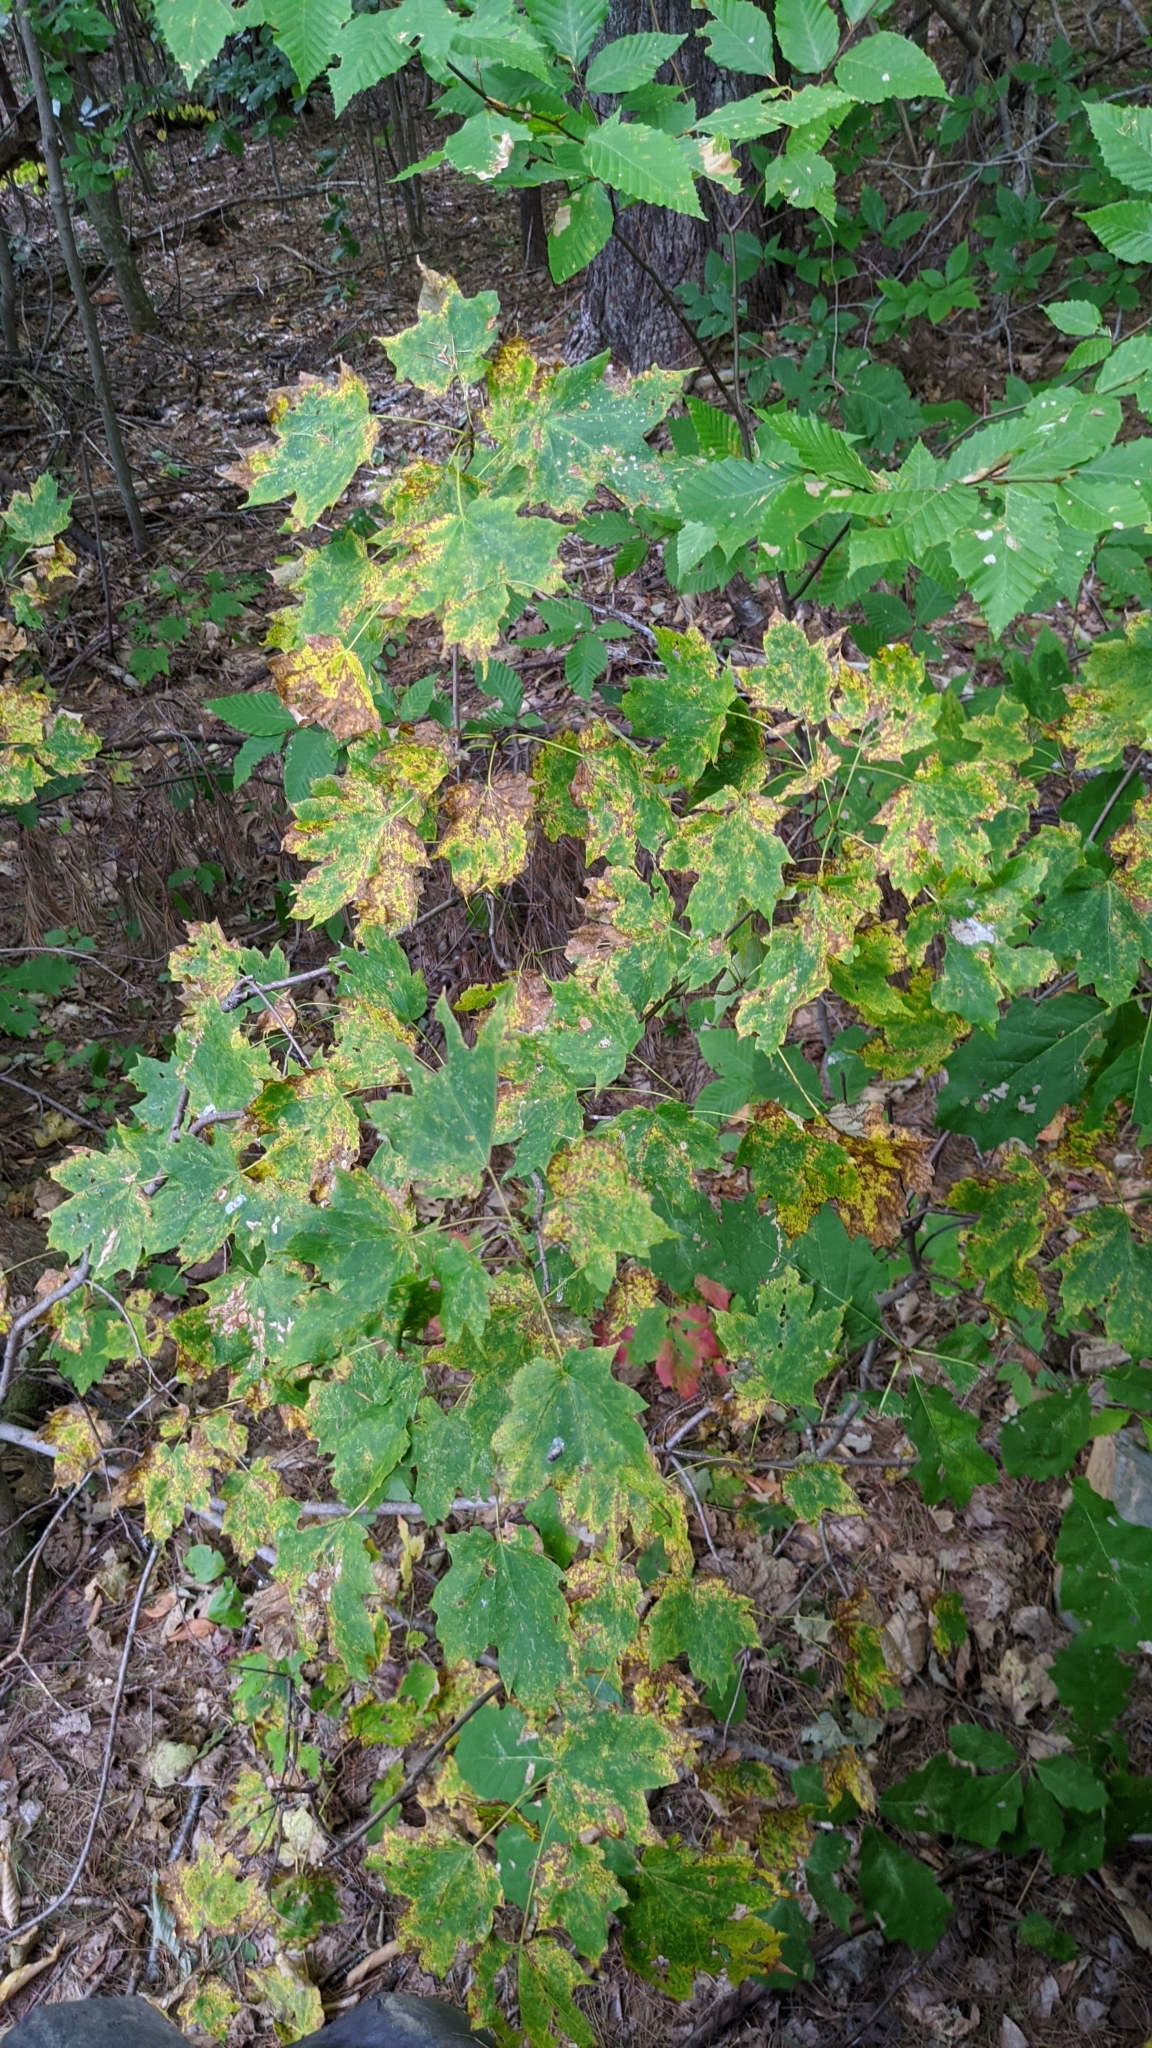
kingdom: Plantae
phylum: Tracheophyta
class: Magnoliopsida
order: Sapindales
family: Sapindaceae
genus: Acer
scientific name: Acer saccharum
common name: Sugar maple
